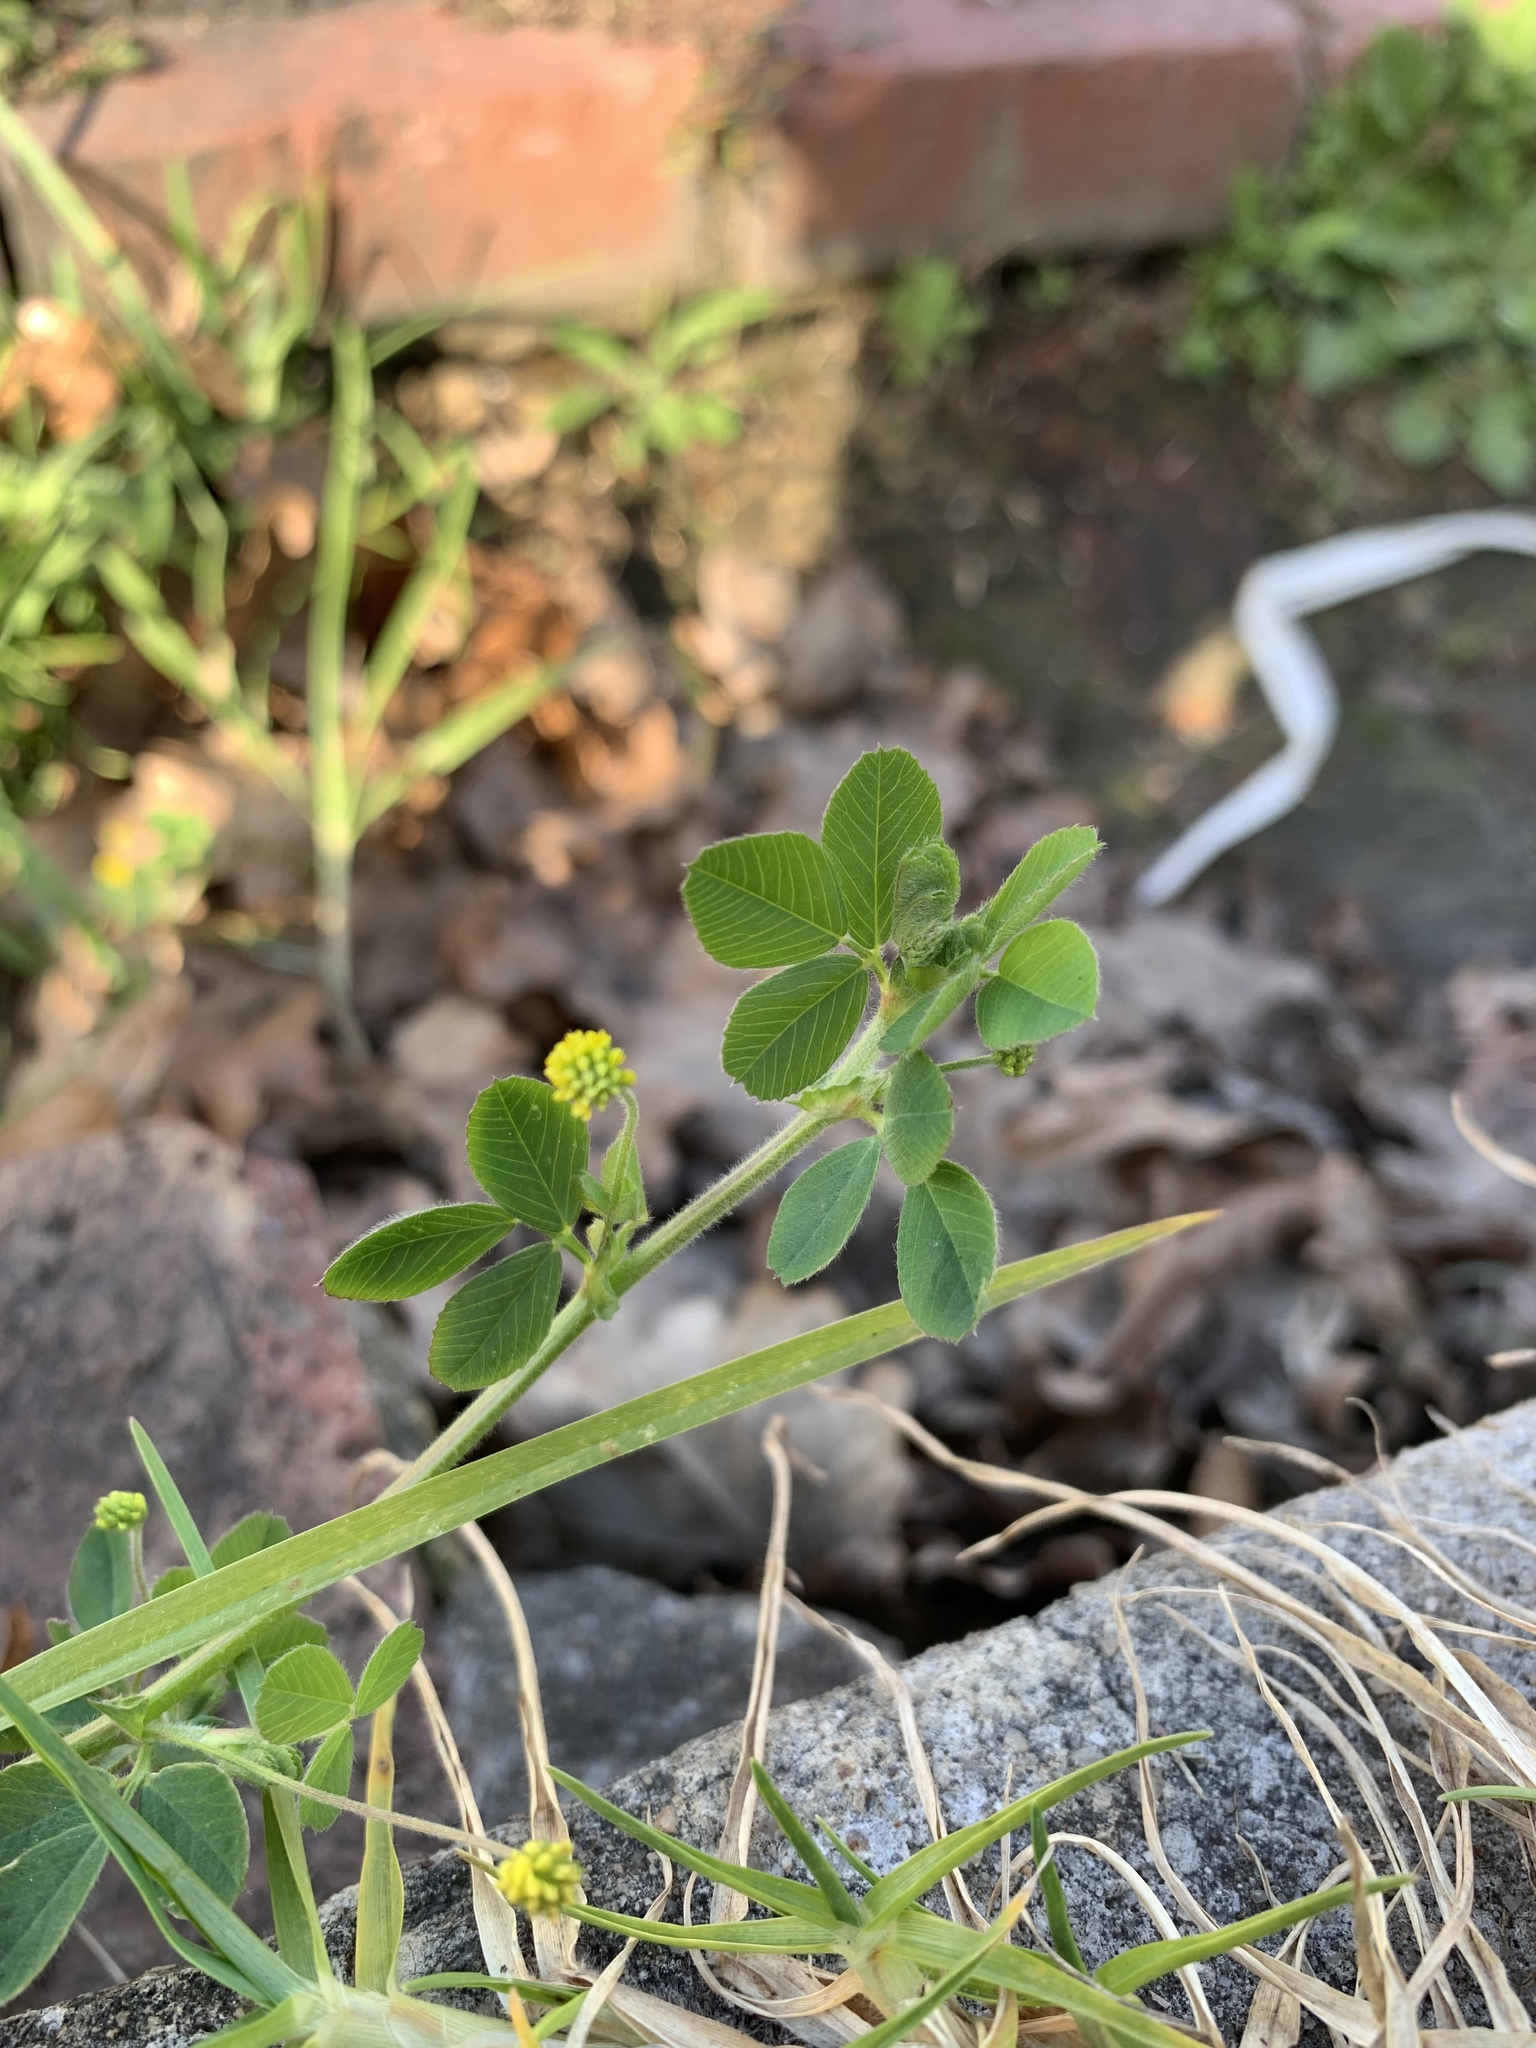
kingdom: Plantae
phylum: Tracheophyta
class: Magnoliopsida
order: Fabales
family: Fabaceae
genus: Medicago
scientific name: Medicago lupulina
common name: Black medick
